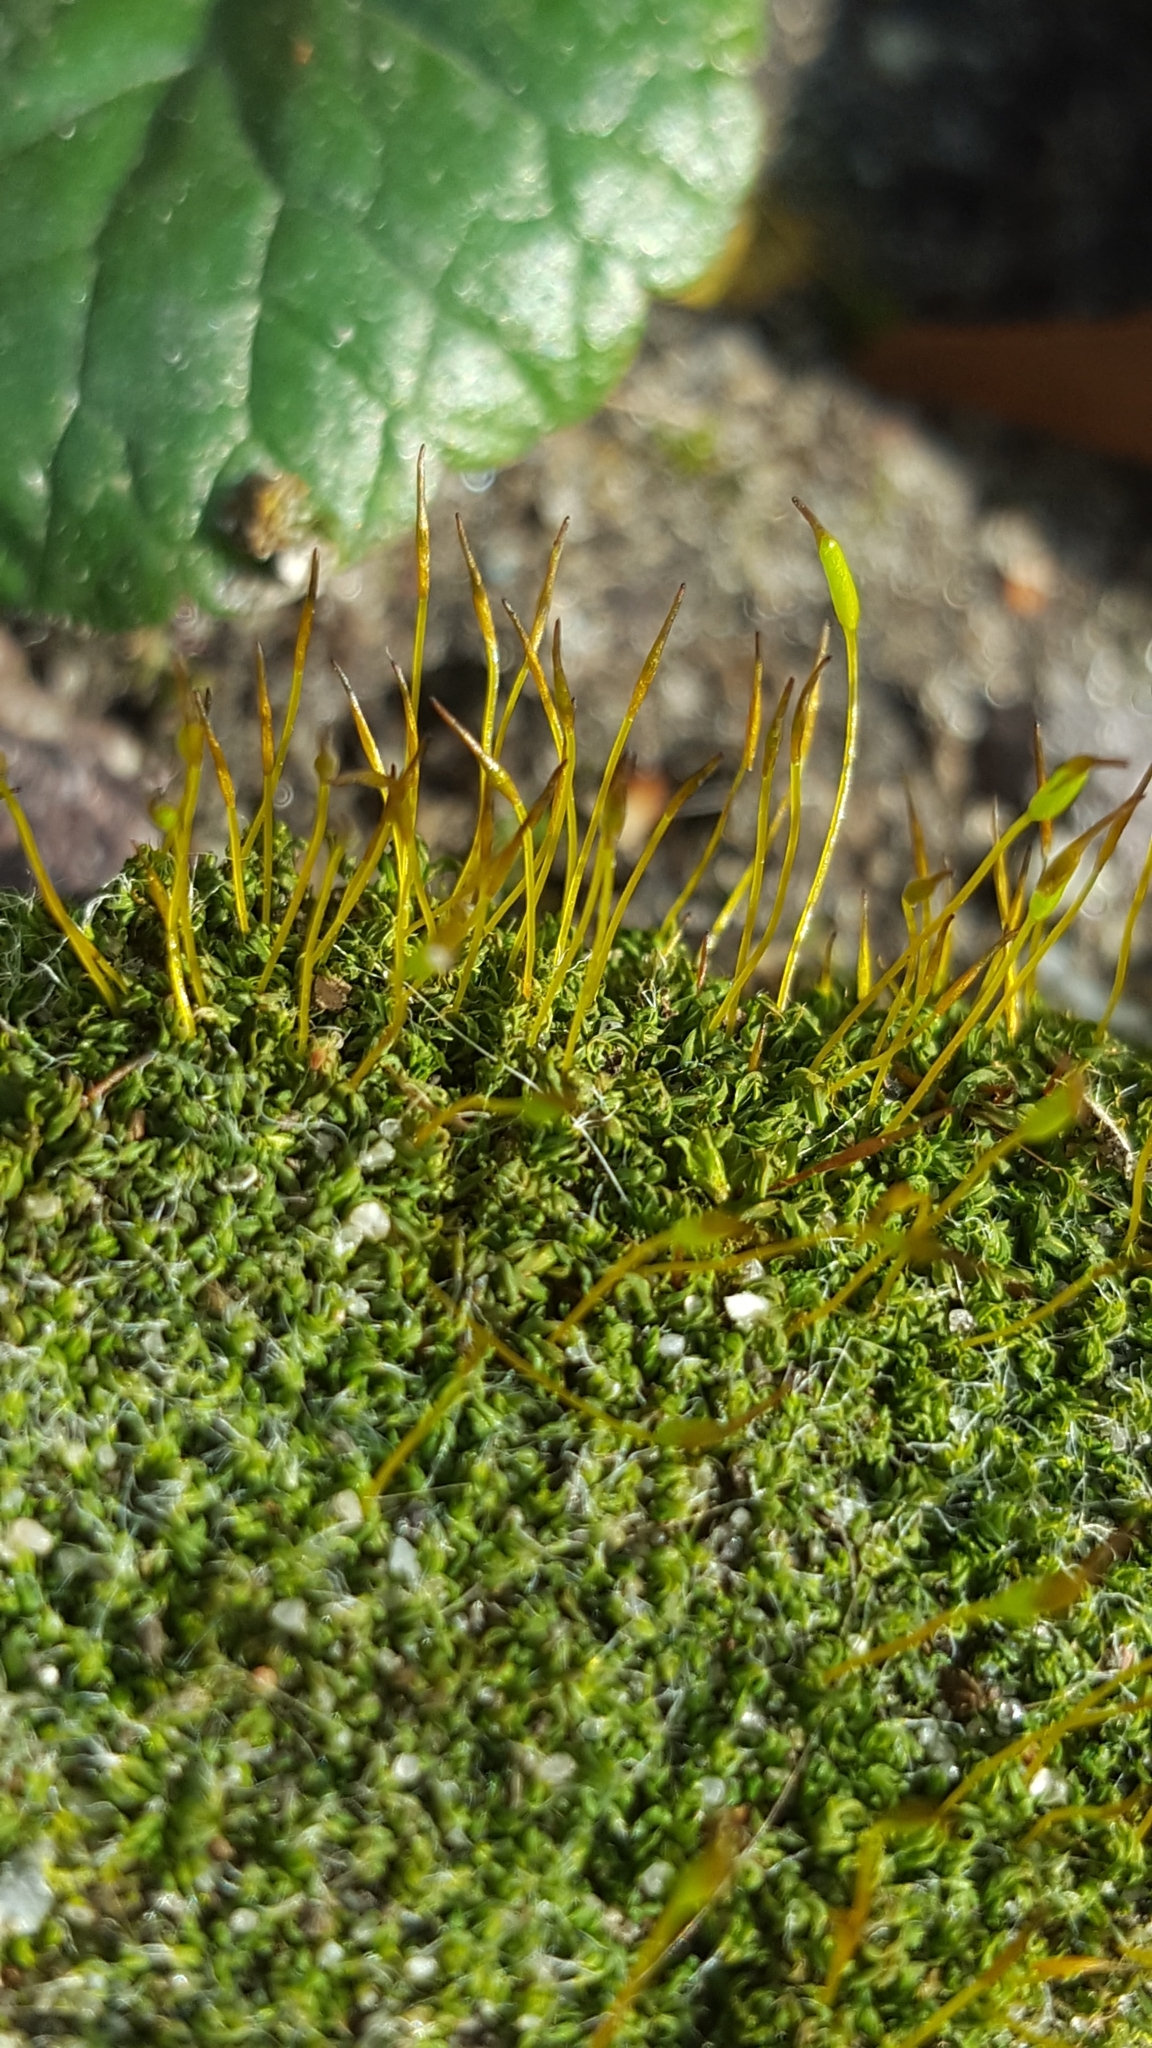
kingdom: Plantae
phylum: Bryophyta
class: Bryopsida
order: Pottiales
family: Pottiaceae
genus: Tortula
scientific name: Tortula muralis
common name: Wall screw-moss
